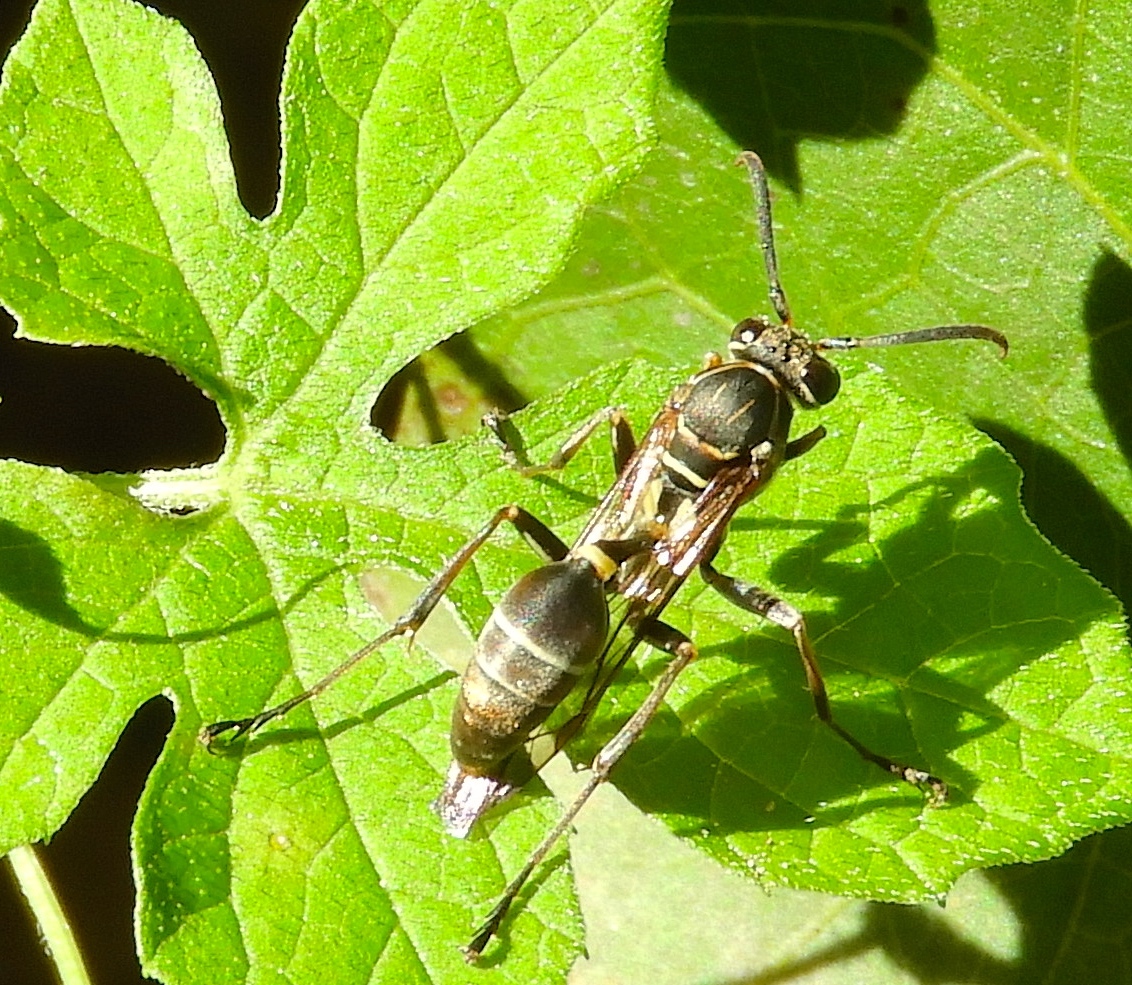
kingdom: Animalia
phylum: Arthropoda
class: Insecta
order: Hymenoptera
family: Vespidae
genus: Mischocyttarus
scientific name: Mischocyttarus mexicanus
